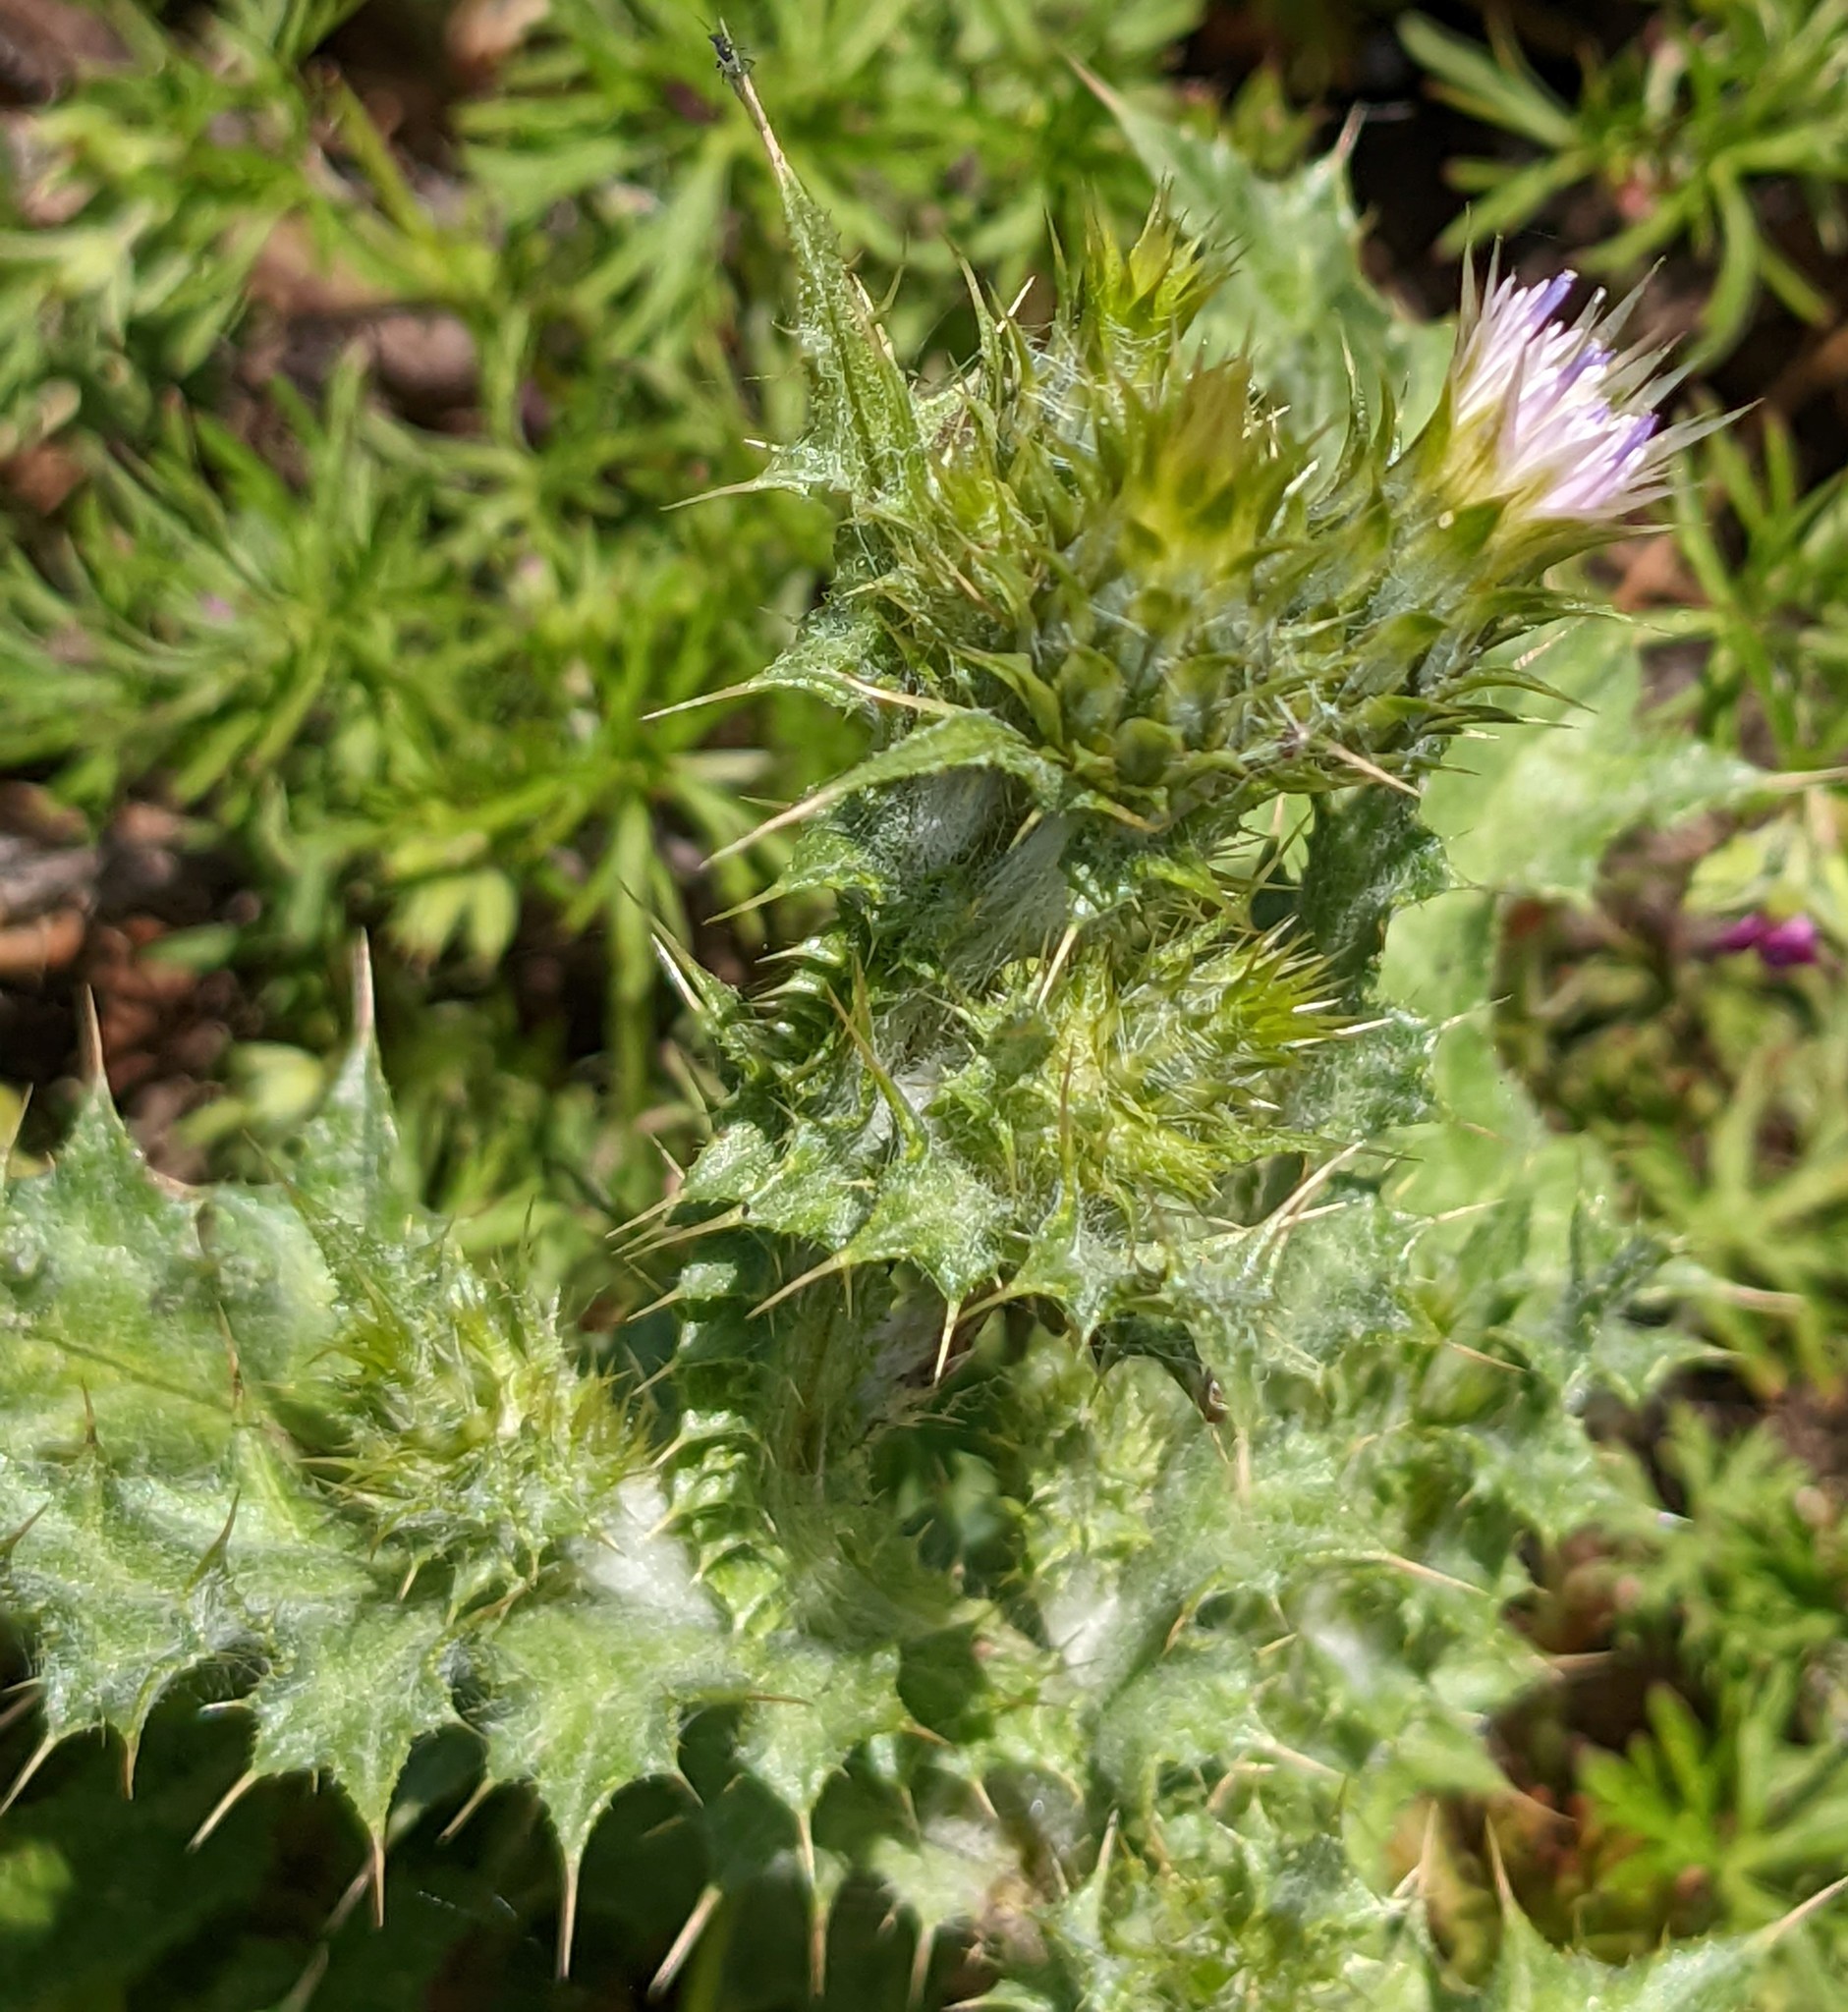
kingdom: Plantae
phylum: Tracheophyta
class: Magnoliopsida
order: Asterales
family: Asteraceae
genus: Carduus
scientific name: Carduus tenuiflorus
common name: Slender thistle
